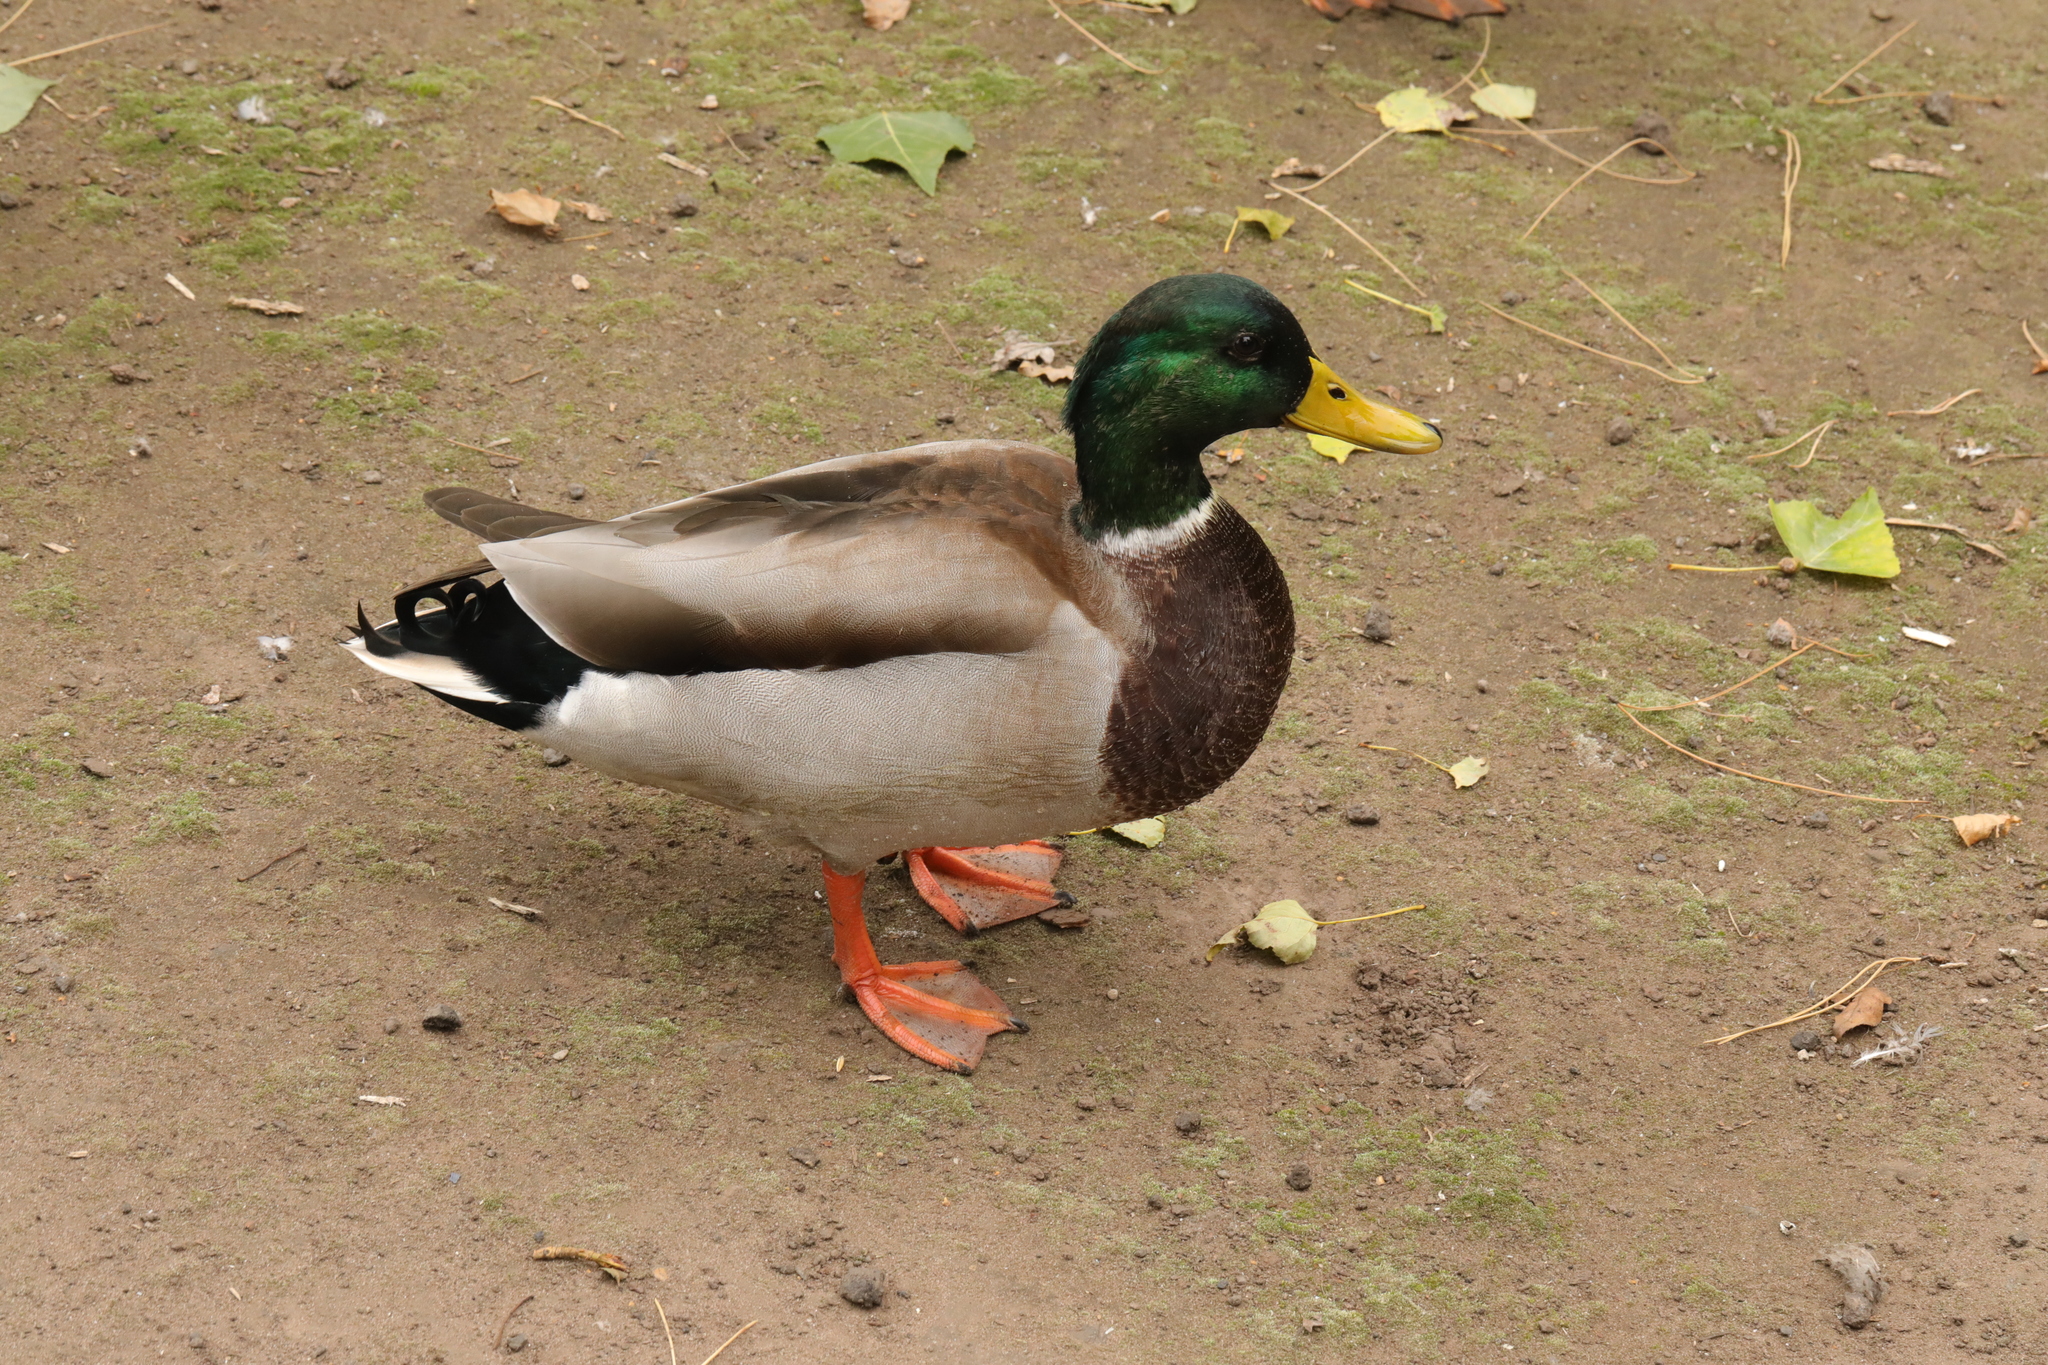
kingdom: Animalia
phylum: Chordata
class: Aves
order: Anseriformes
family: Anatidae
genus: Anas
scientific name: Anas platyrhynchos
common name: Mallard
